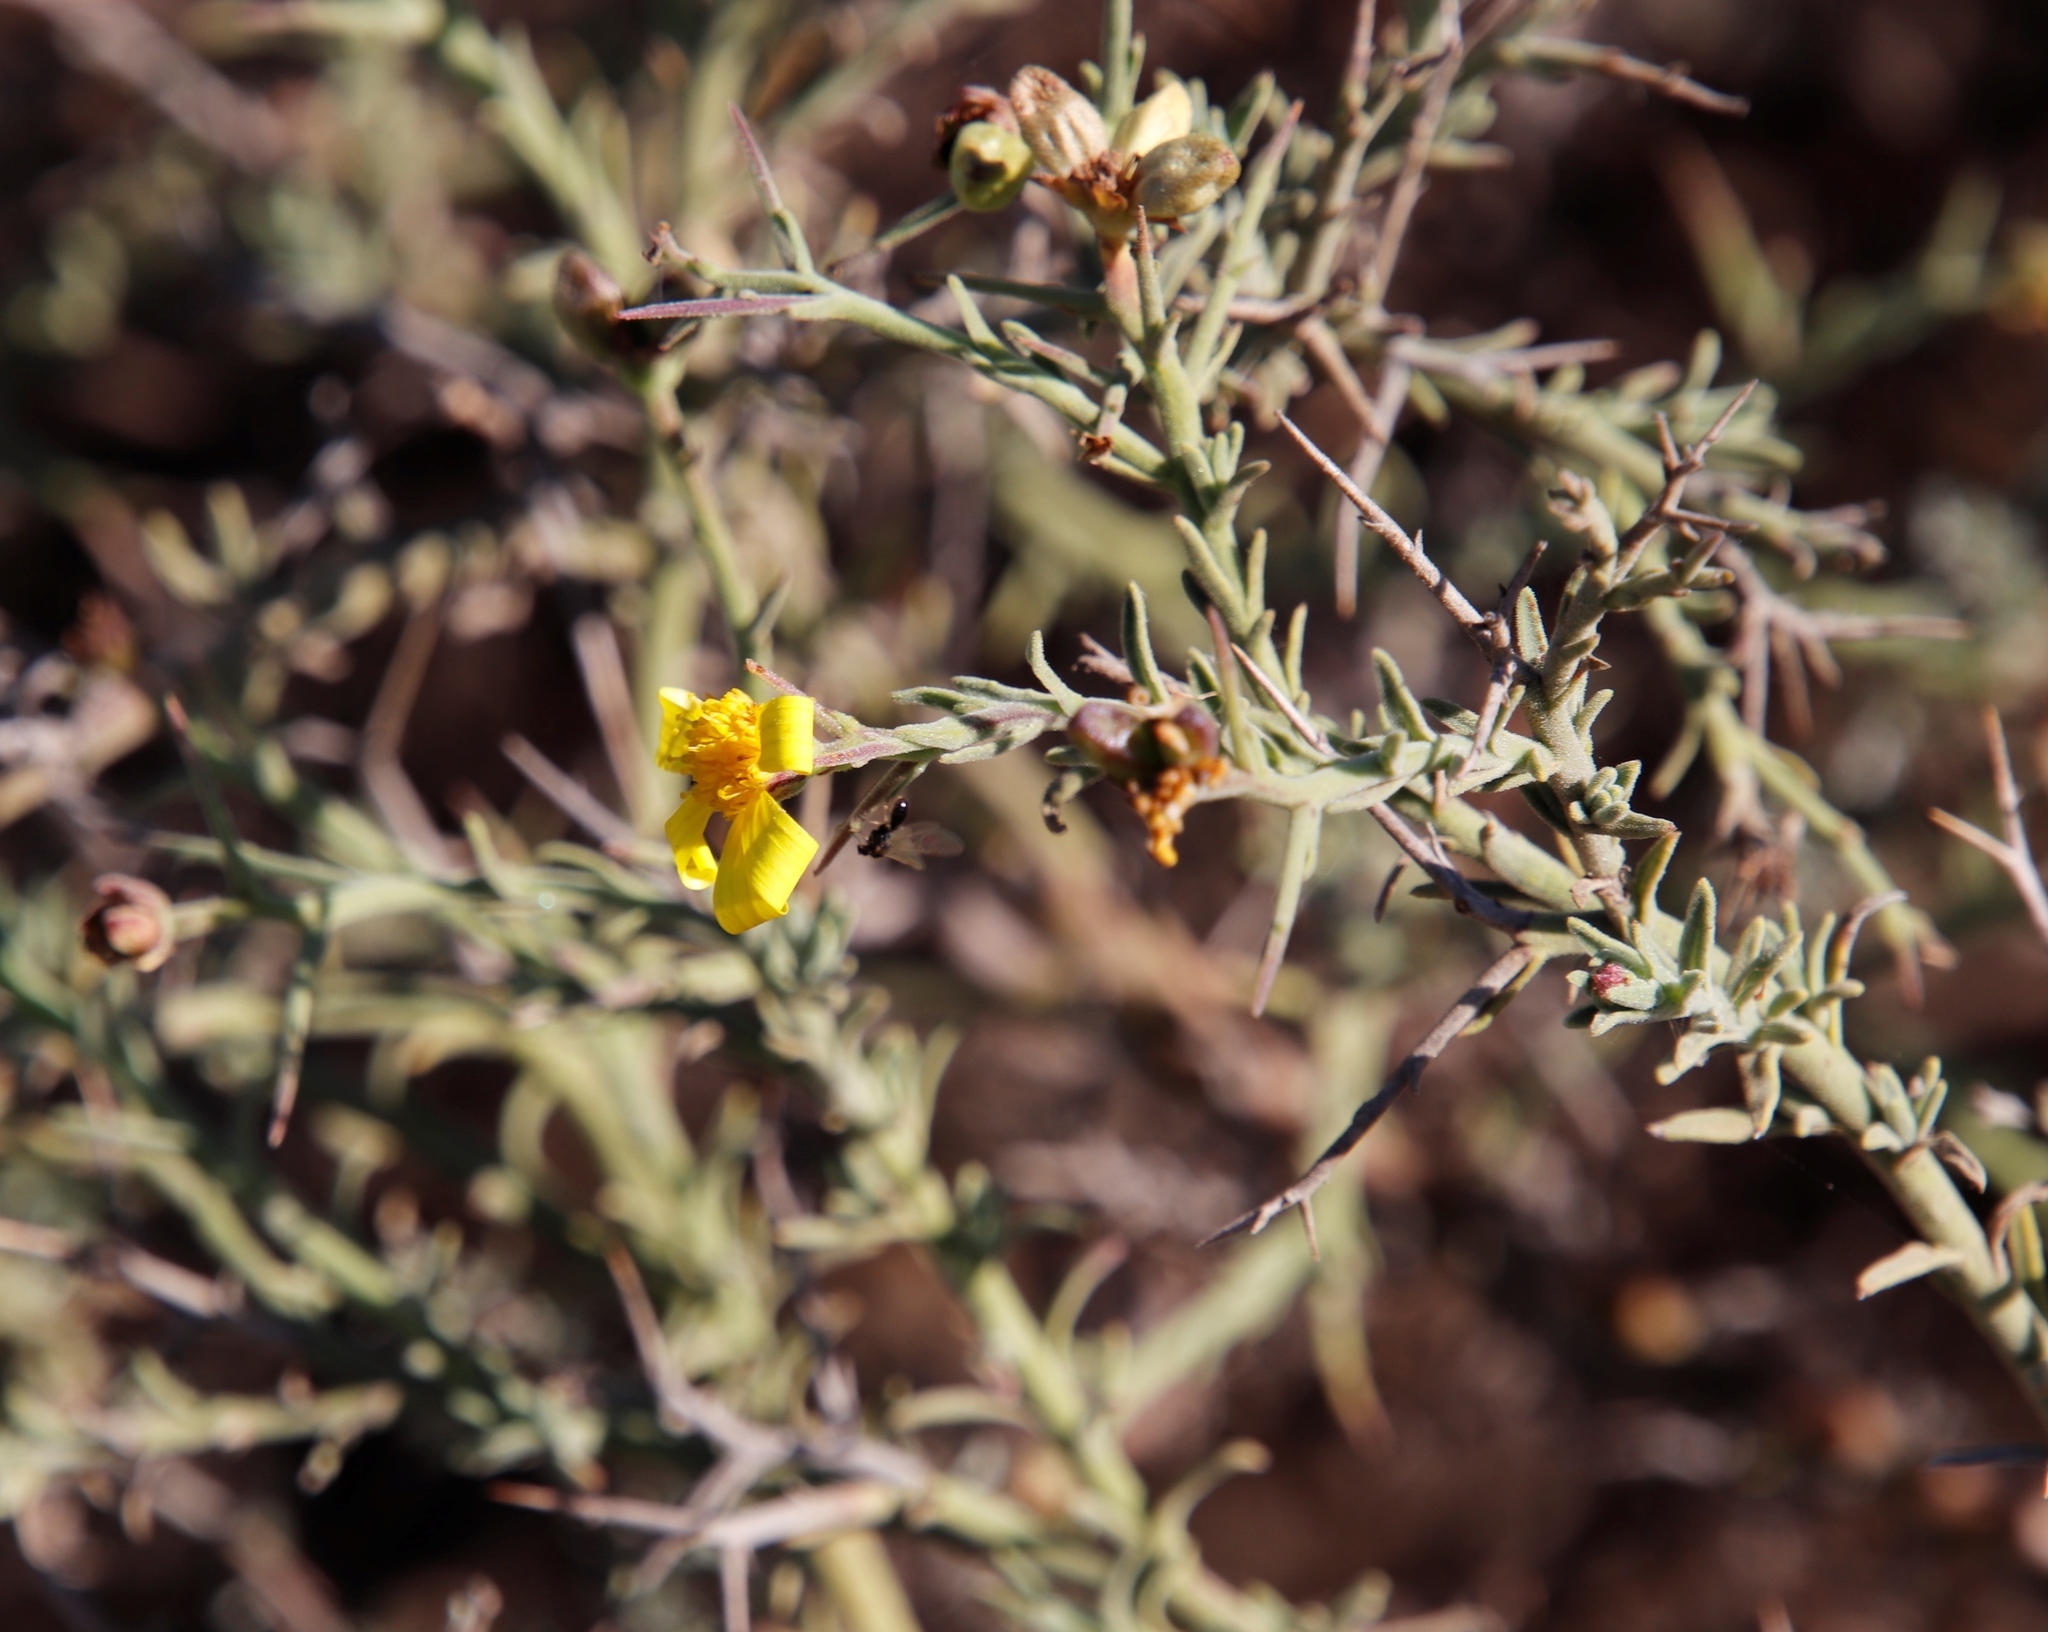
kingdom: Plantae
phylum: Tracheophyta
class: Magnoliopsida
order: Asterales
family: Asteraceae
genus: Osteospermum
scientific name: Osteospermum spinosum
